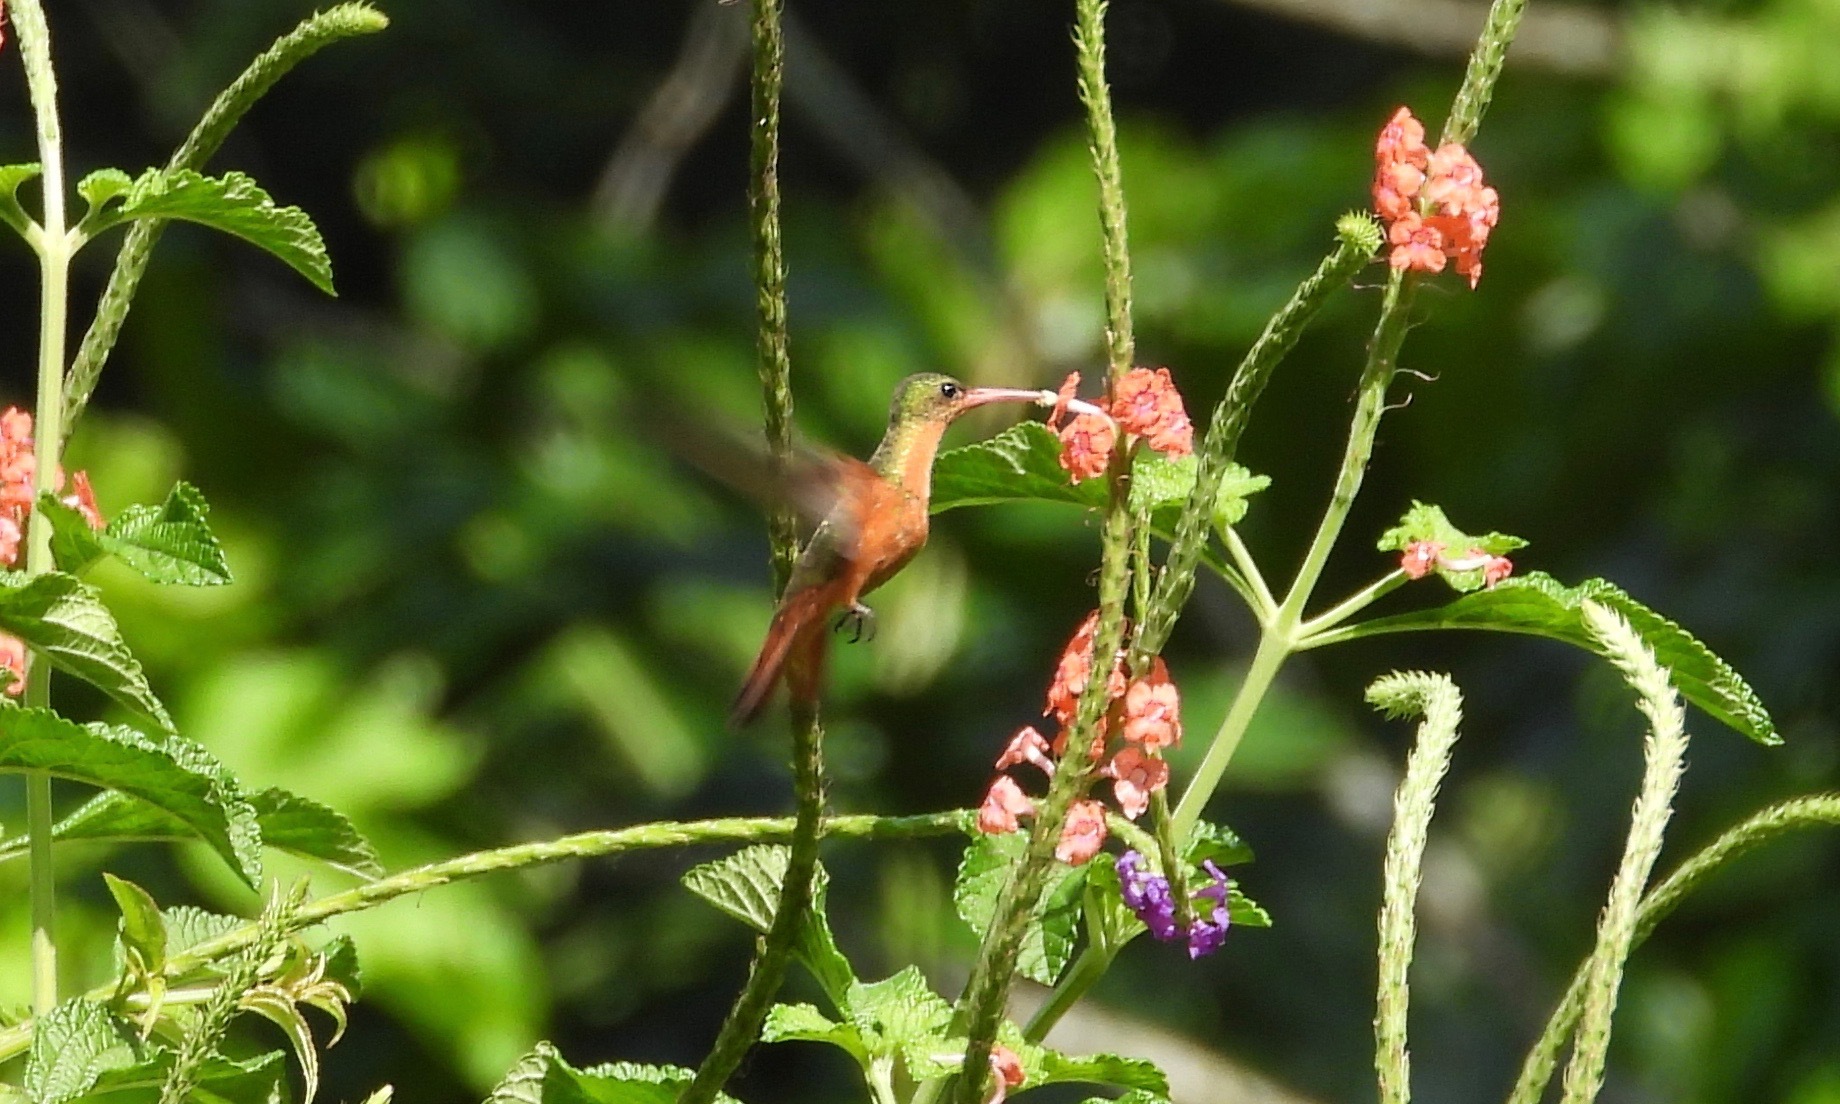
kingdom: Animalia
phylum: Chordata
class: Aves
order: Apodiformes
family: Trochilidae
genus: Amazilia
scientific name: Amazilia rutila
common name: Cinnamon hummingbird
